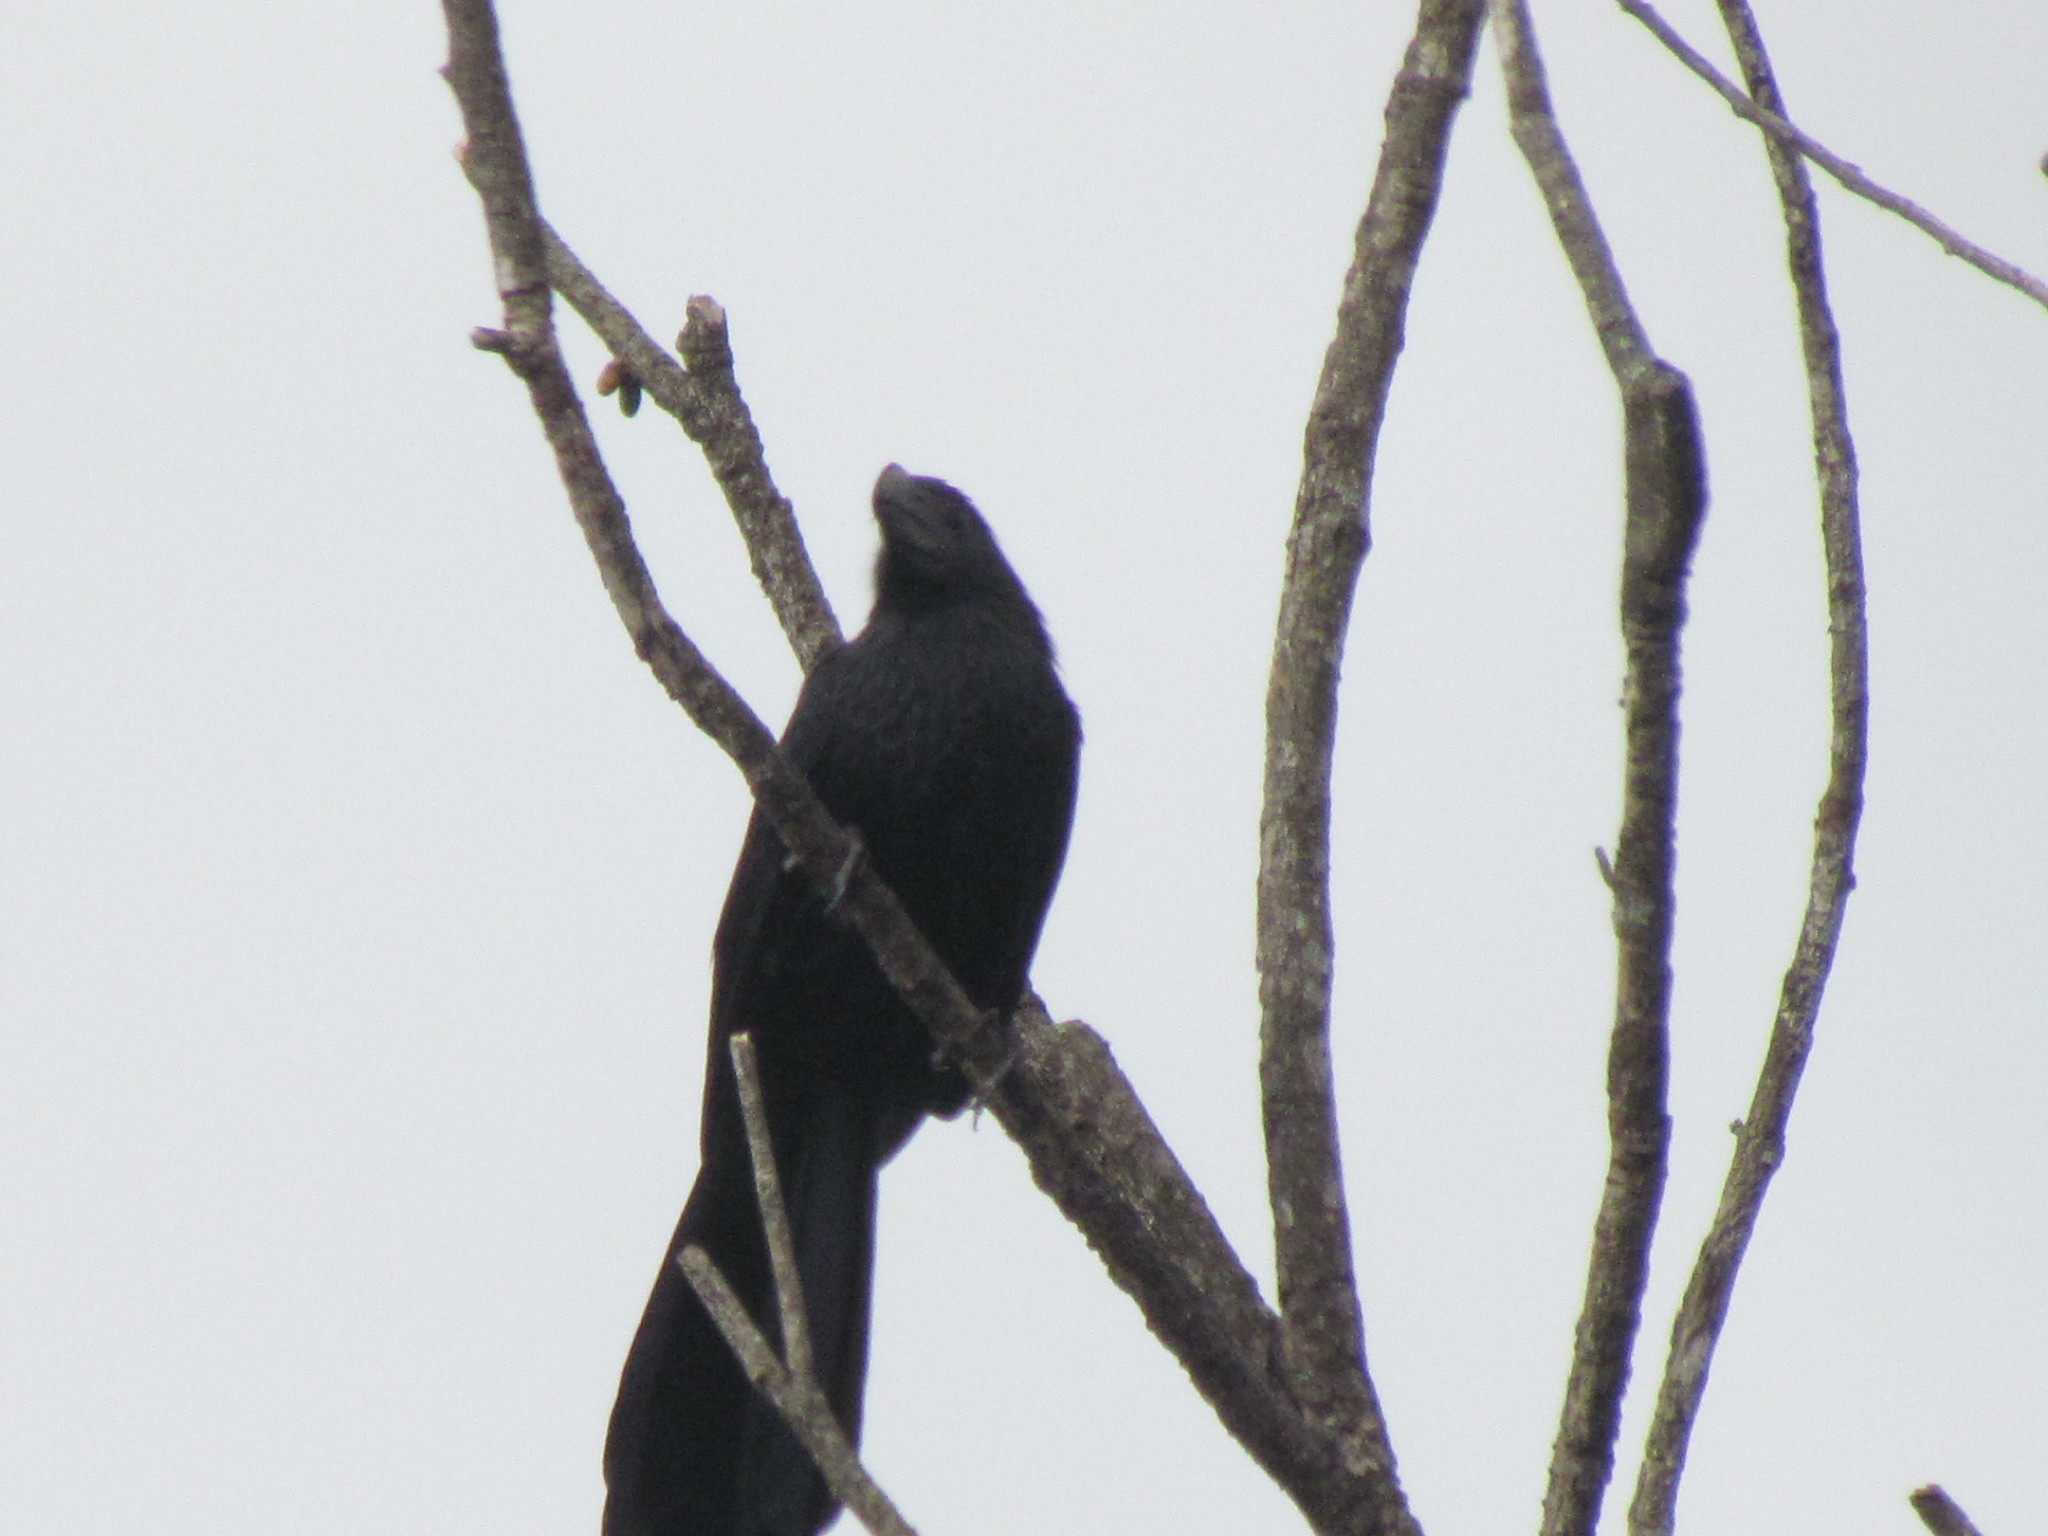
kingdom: Animalia
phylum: Chordata
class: Aves
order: Cuculiformes
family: Cuculidae
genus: Crotophaga
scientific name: Crotophaga sulcirostris
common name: Groove-billed ani
